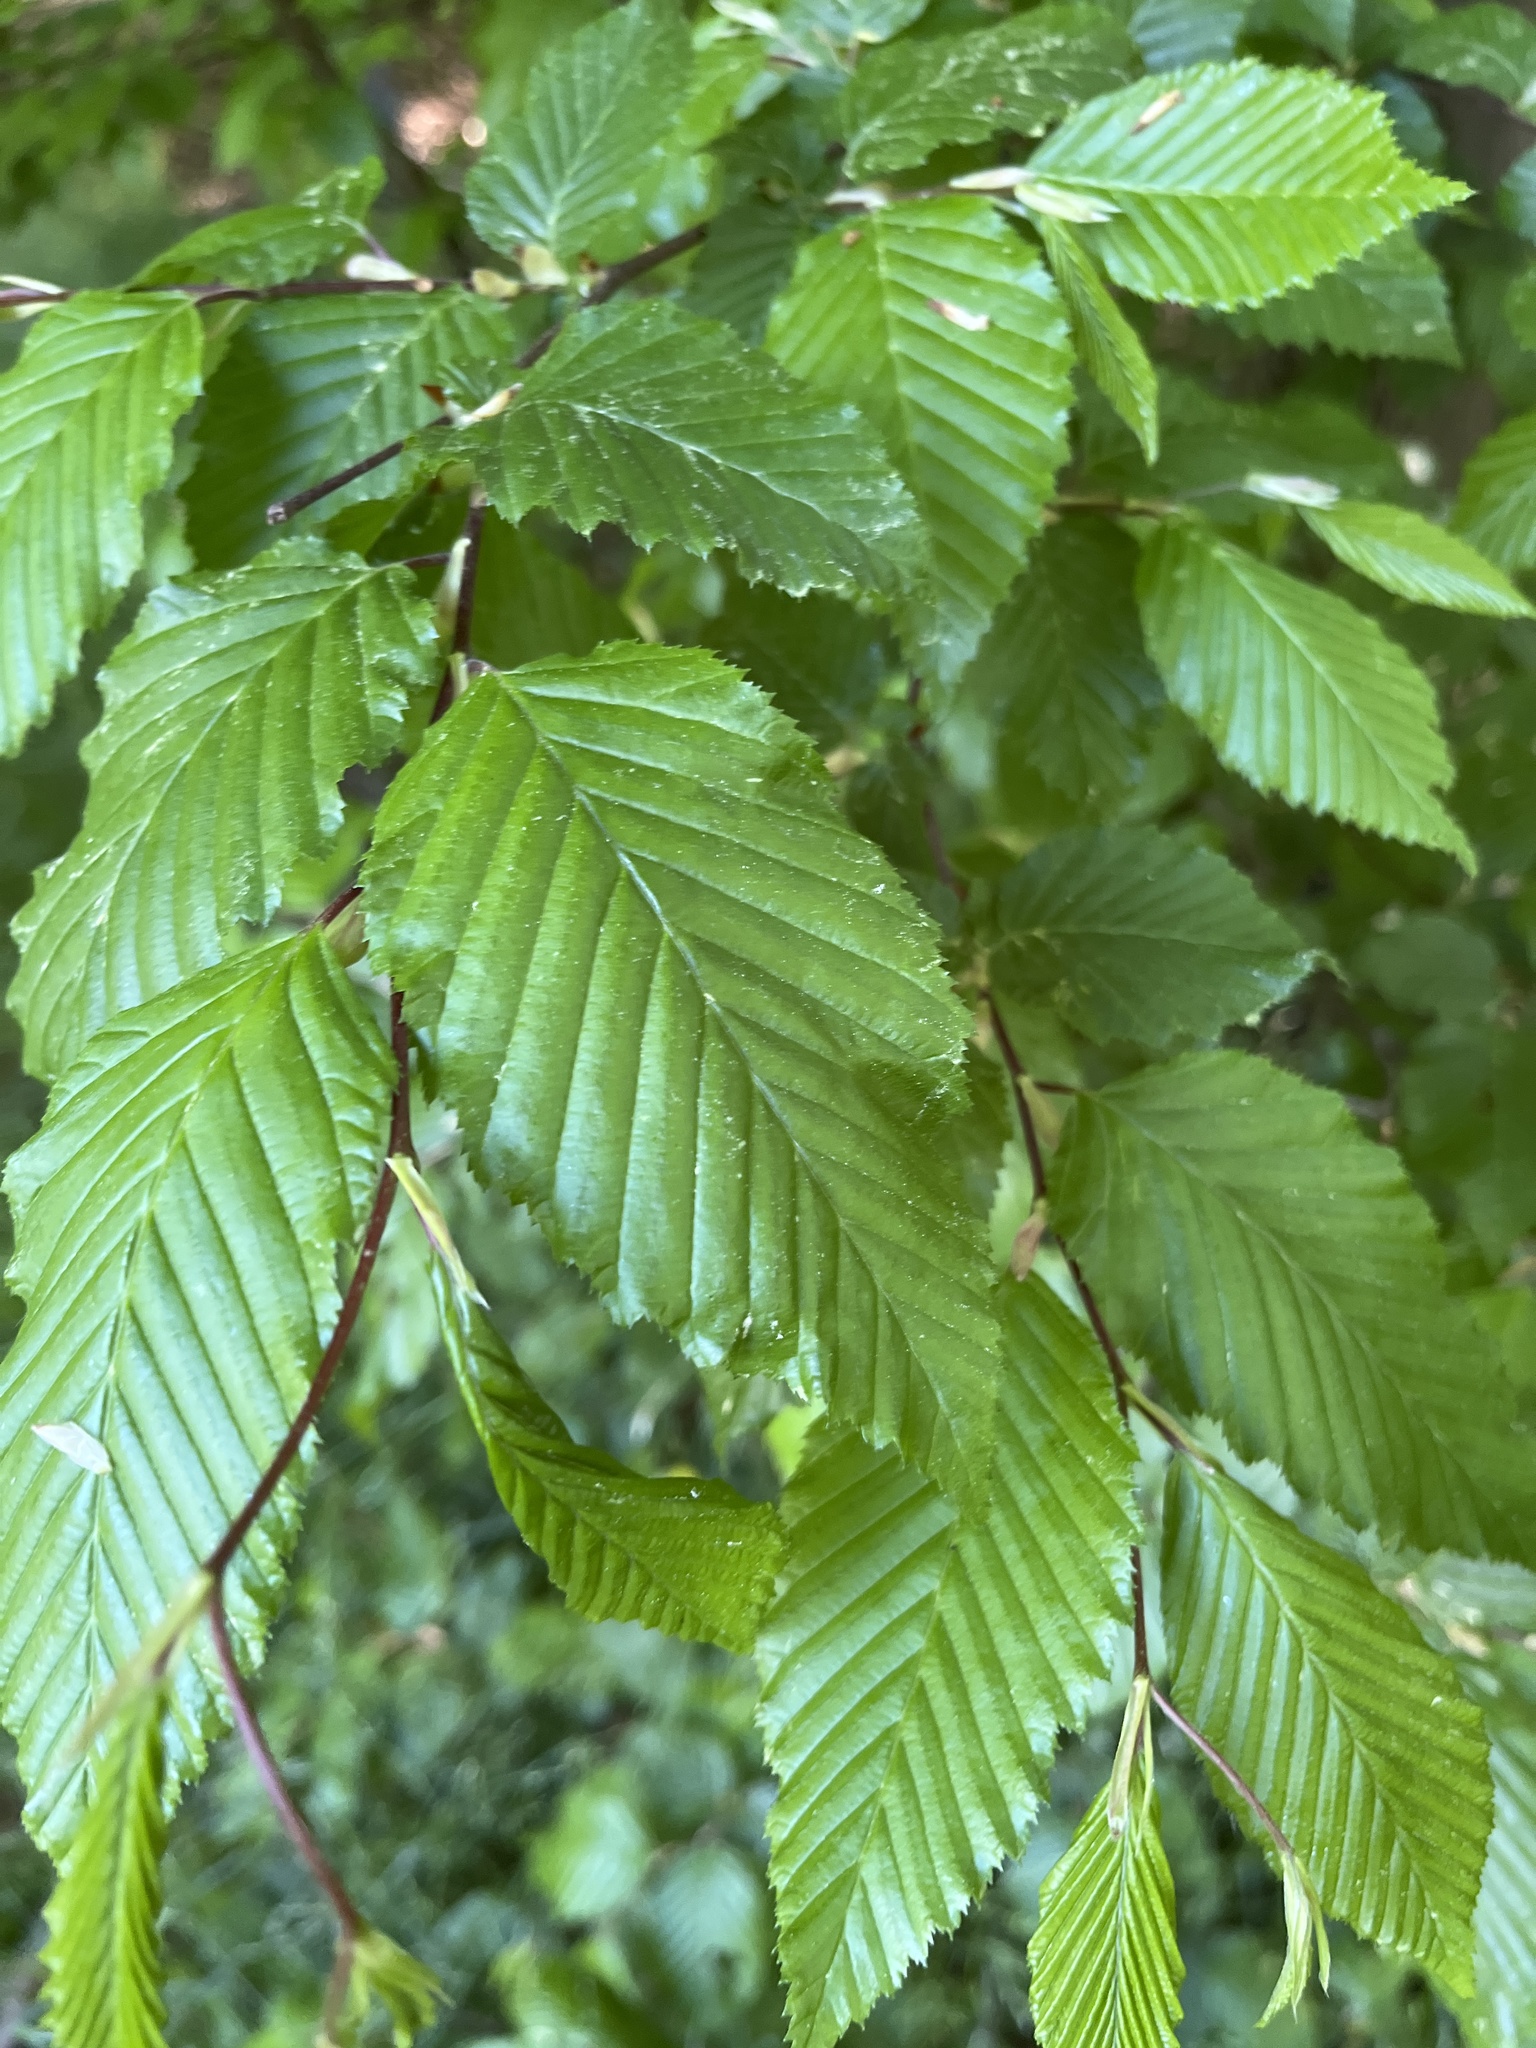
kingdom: Plantae
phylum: Tracheophyta
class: Magnoliopsida
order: Fagales
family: Betulaceae
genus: Carpinus
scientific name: Carpinus betulus
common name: Hornbeam
